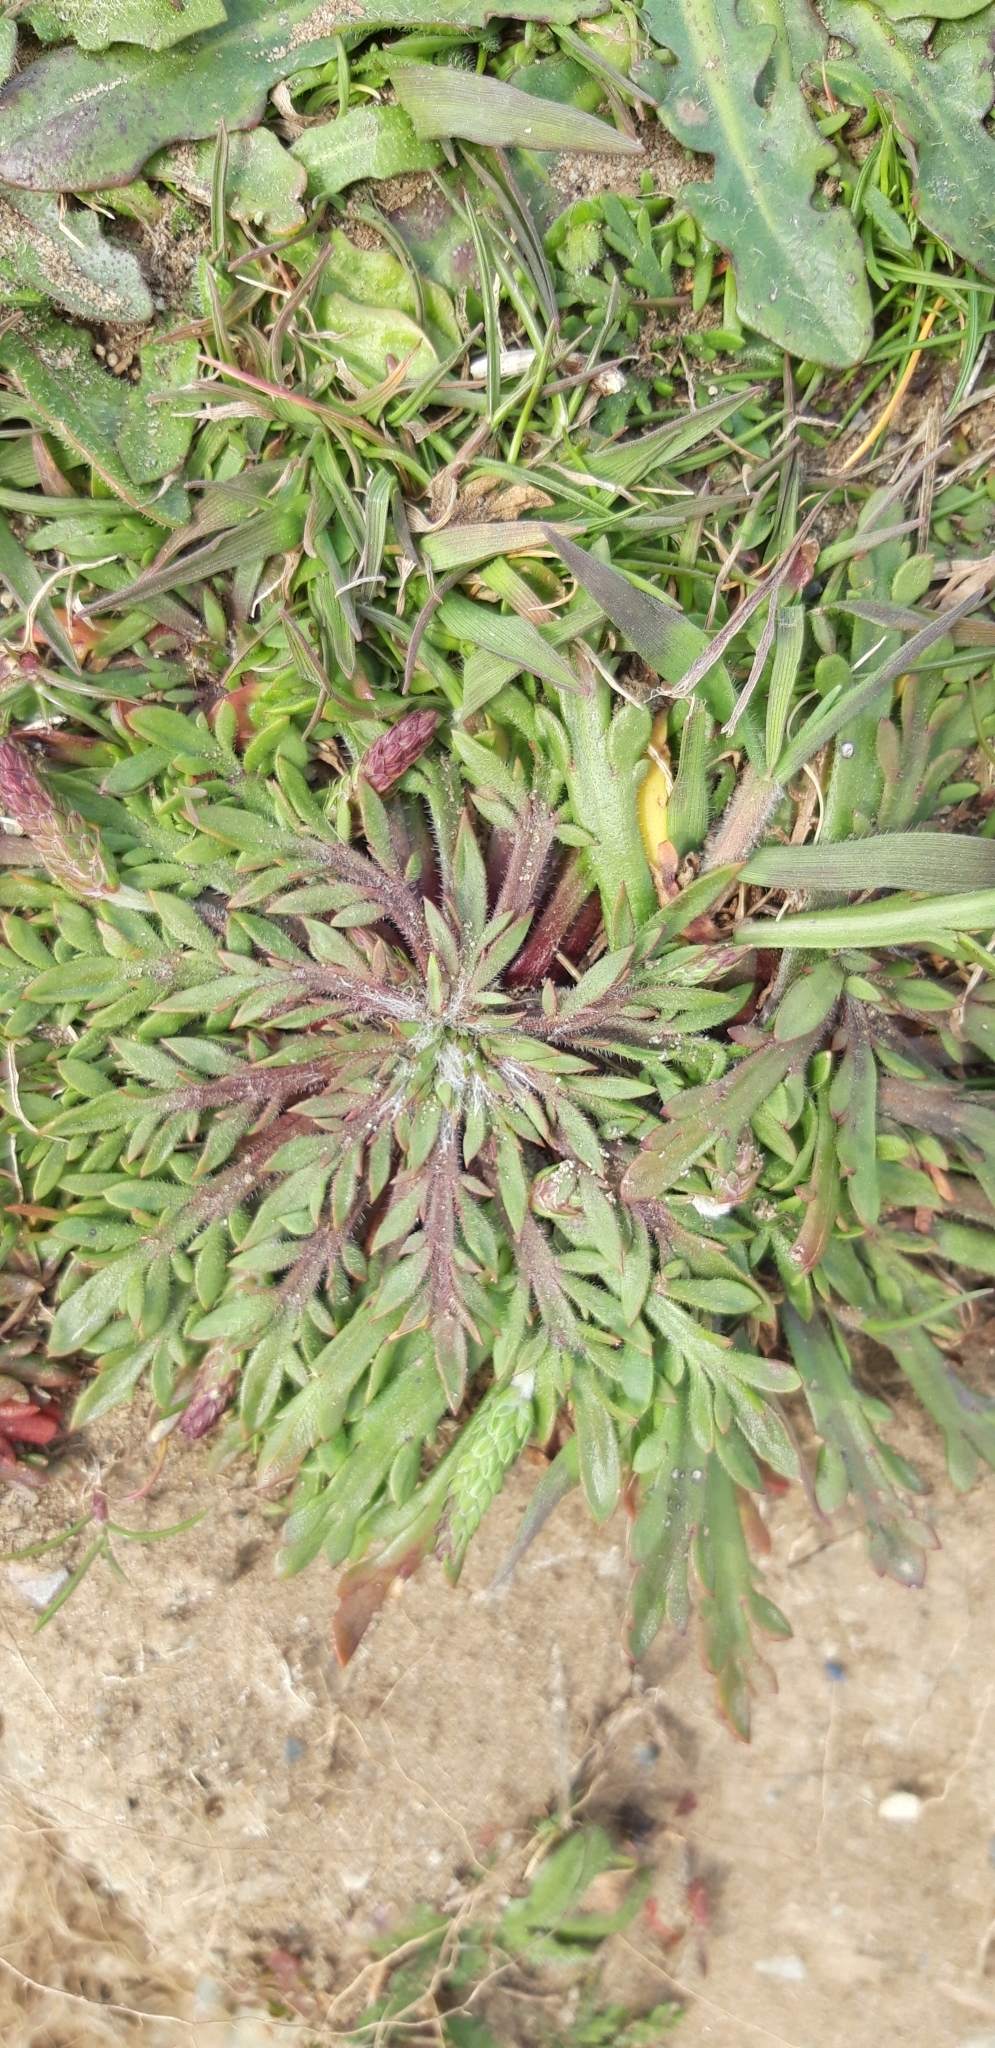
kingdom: Plantae
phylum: Tracheophyta
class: Magnoliopsida
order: Lamiales
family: Plantaginaceae
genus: Plantago
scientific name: Plantago coronopus
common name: Buck's-horn plantain
